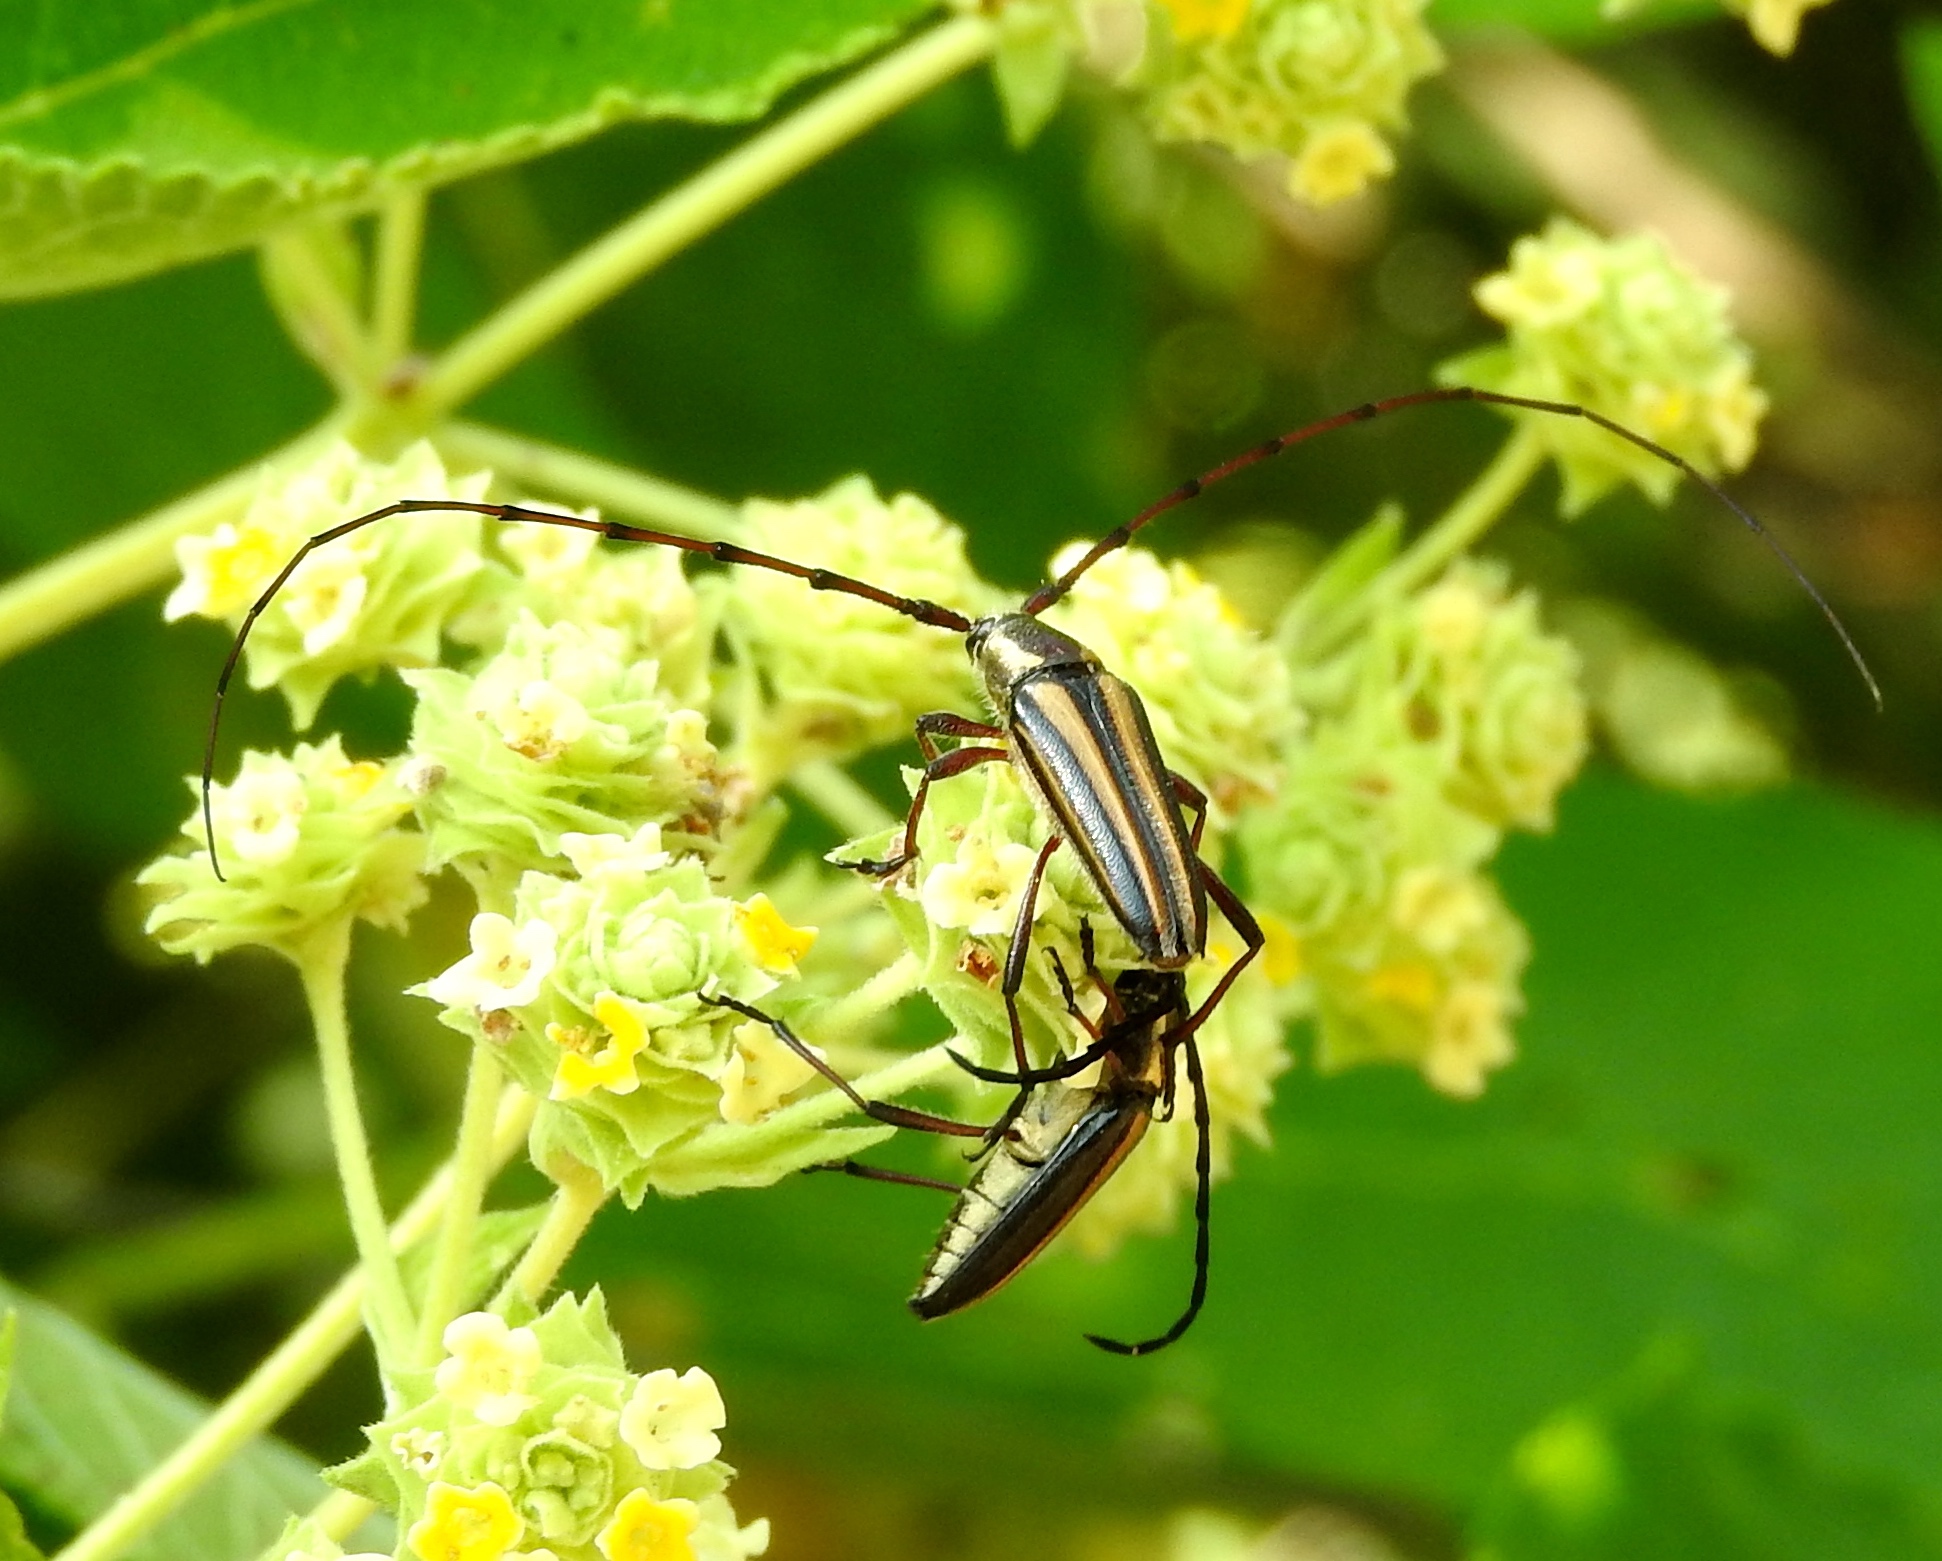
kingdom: Animalia
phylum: Arthropoda
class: Insecta
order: Coleoptera
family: Cerambycidae
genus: Sphaenothecus
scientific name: Sphaenothecus maccartyi
